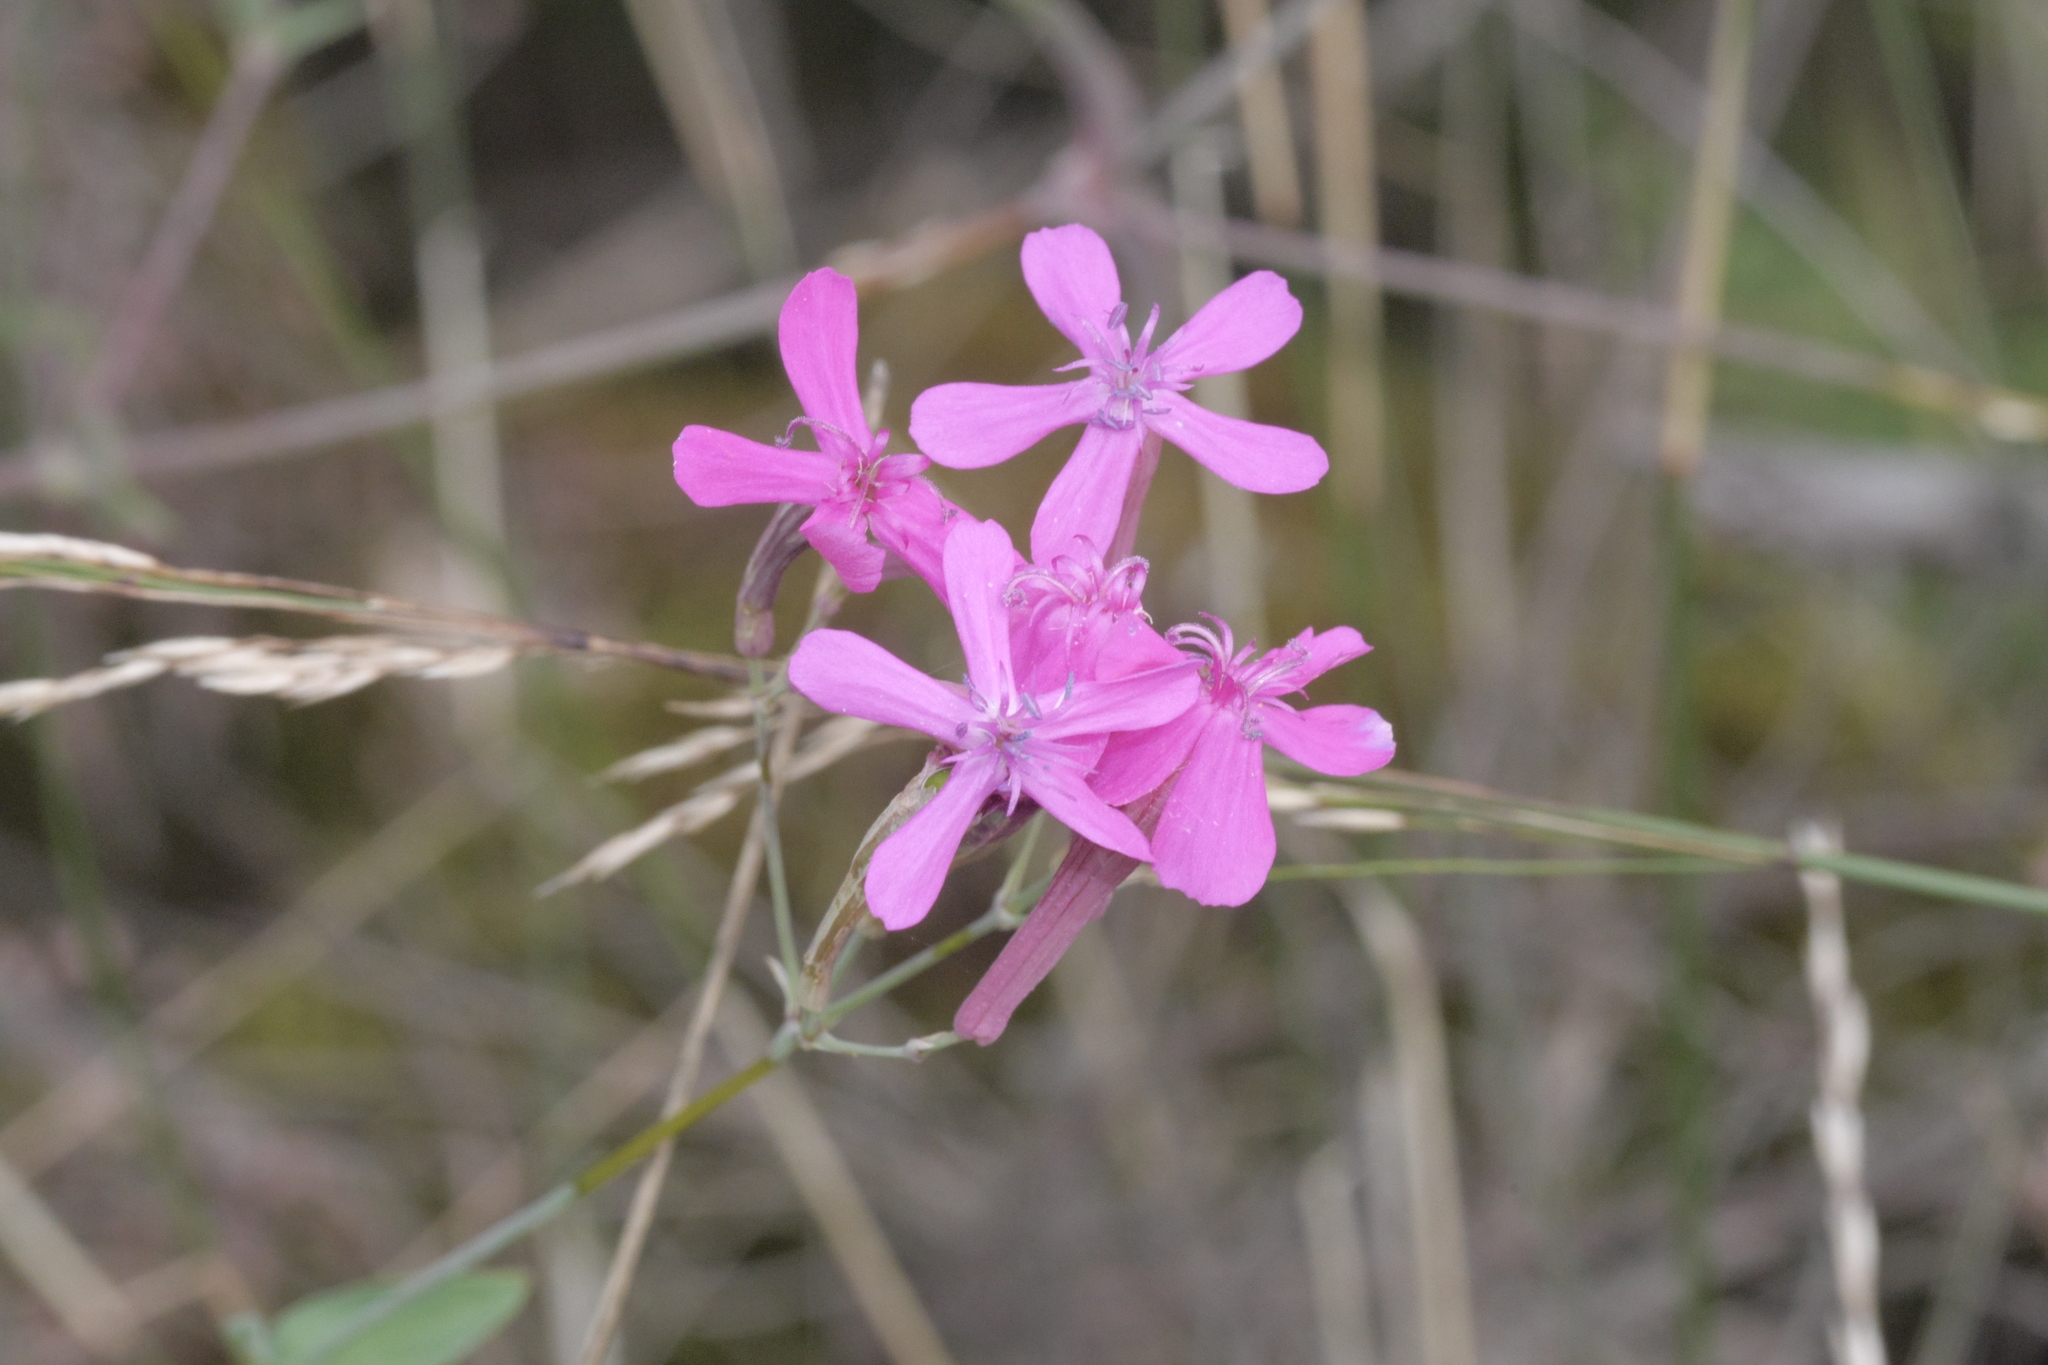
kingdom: Plantae
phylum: Tracheophyta
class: Magnoliopsida
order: Caryophyllales
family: Caryophyllaceae
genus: Atocion
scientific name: Atocion armeria
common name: Sweet william catchfly
